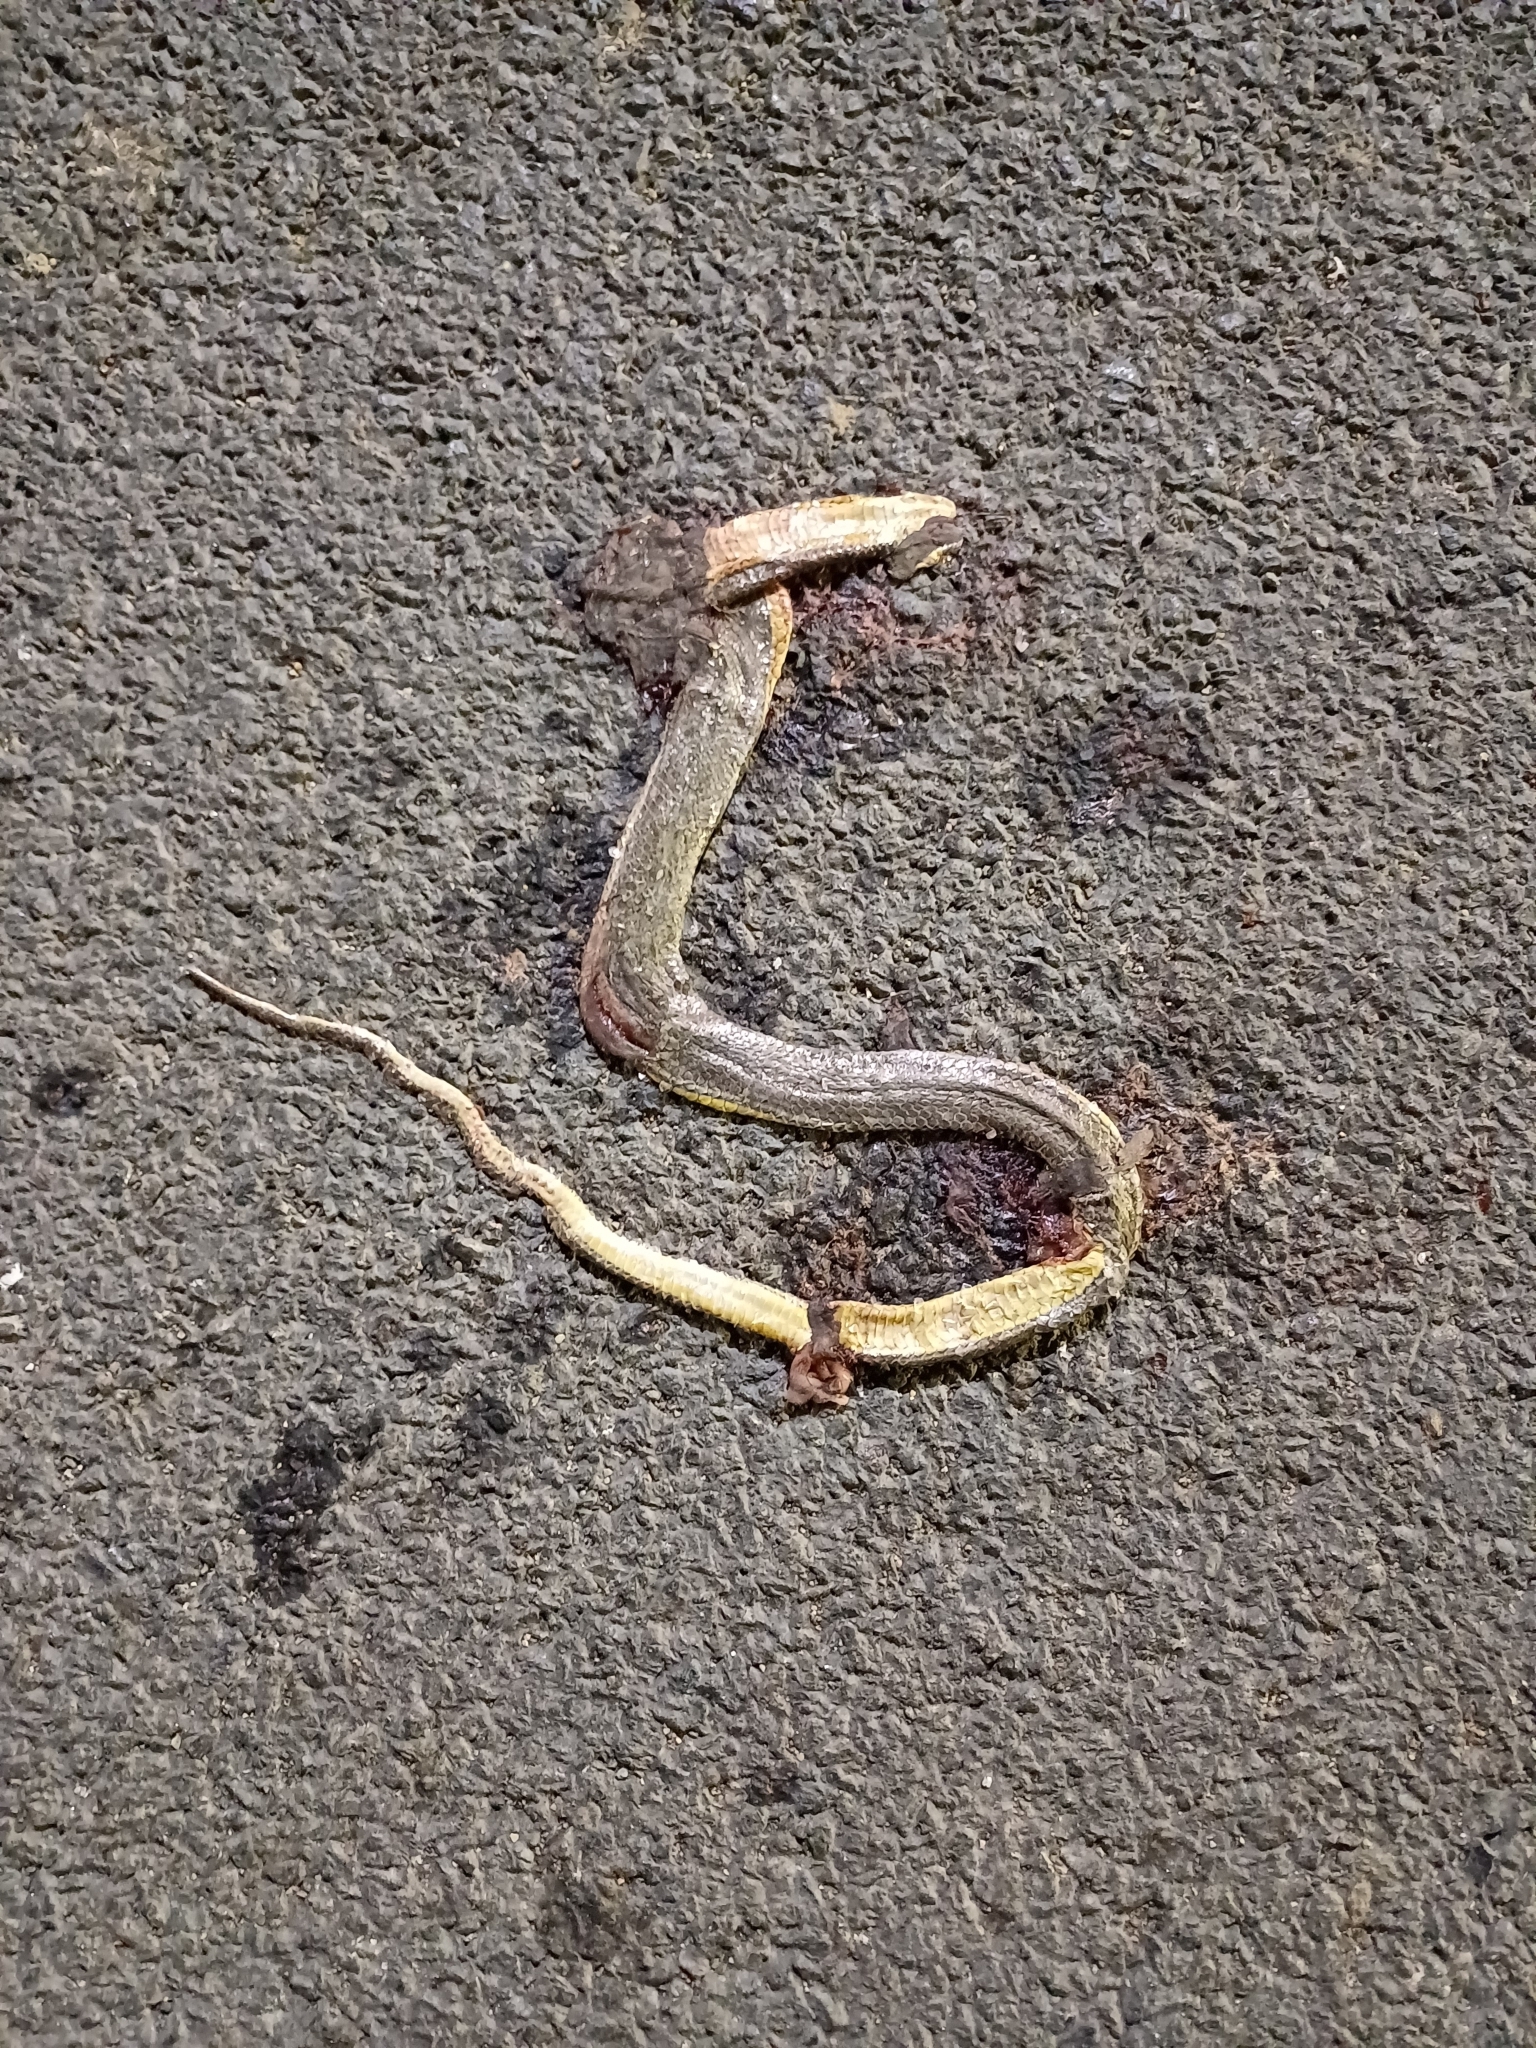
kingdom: Animalia
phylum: Chordata
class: Squamata
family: Colubridae
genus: Atretium
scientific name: Atretium schistosum
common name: Olive keelback wart snake
